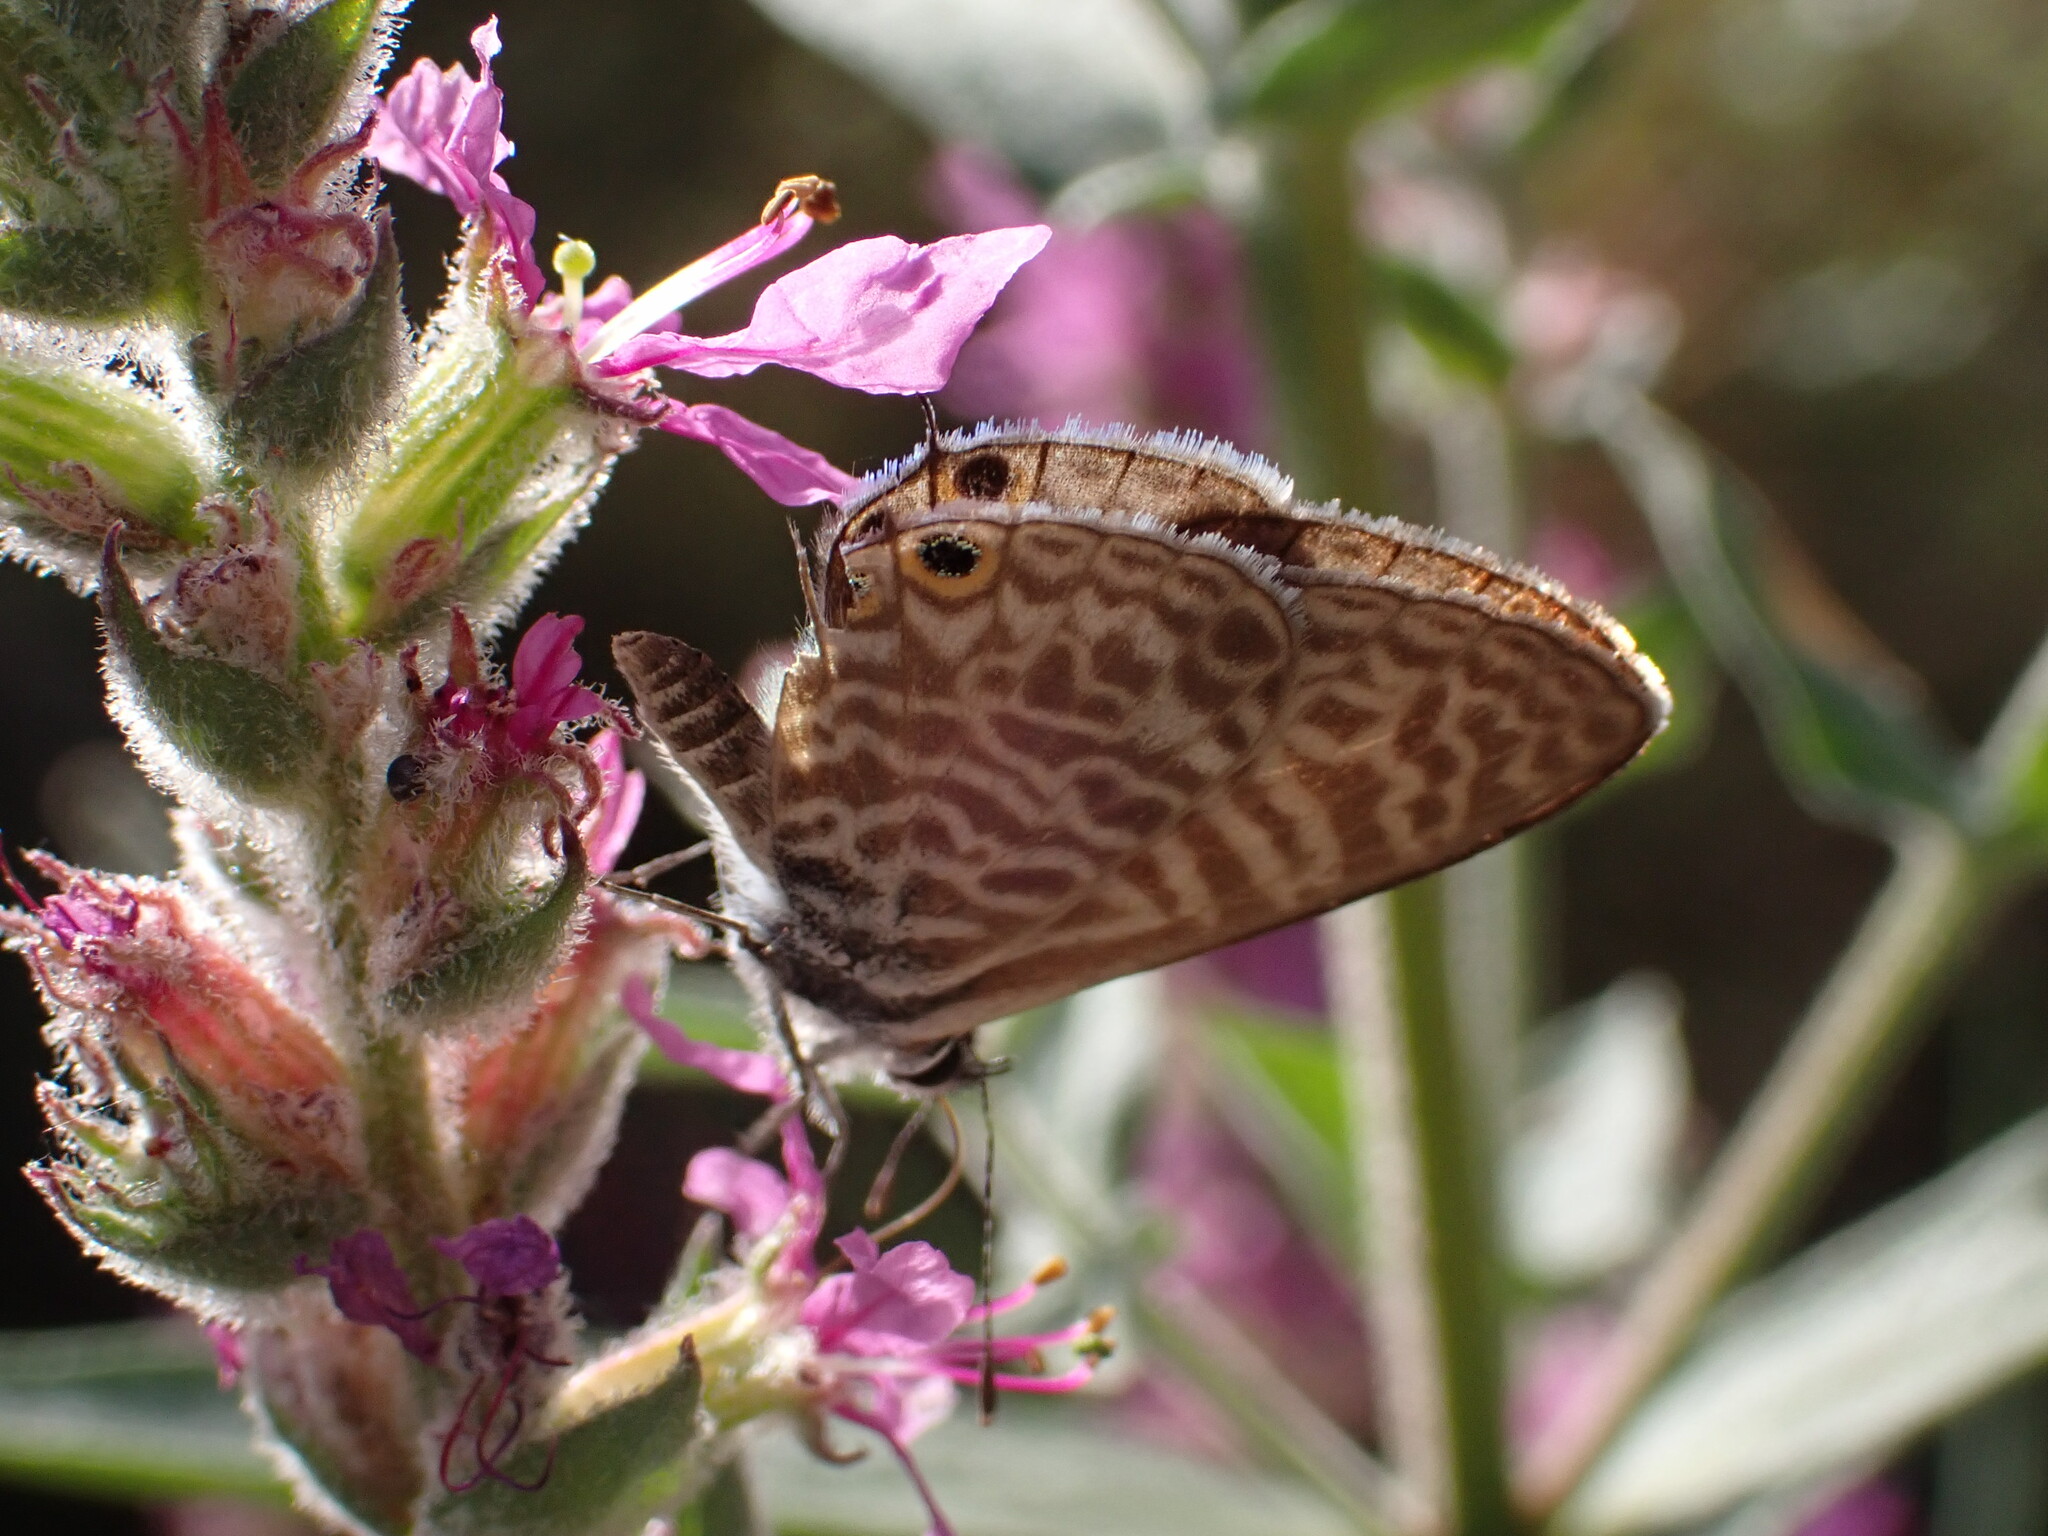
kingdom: Animalia
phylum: Arthropoda
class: Insecta
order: Lepidoptera
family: Lycaenidae
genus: Leptotes
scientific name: Leptotes pirithous
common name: Lang's short-tailed blue
